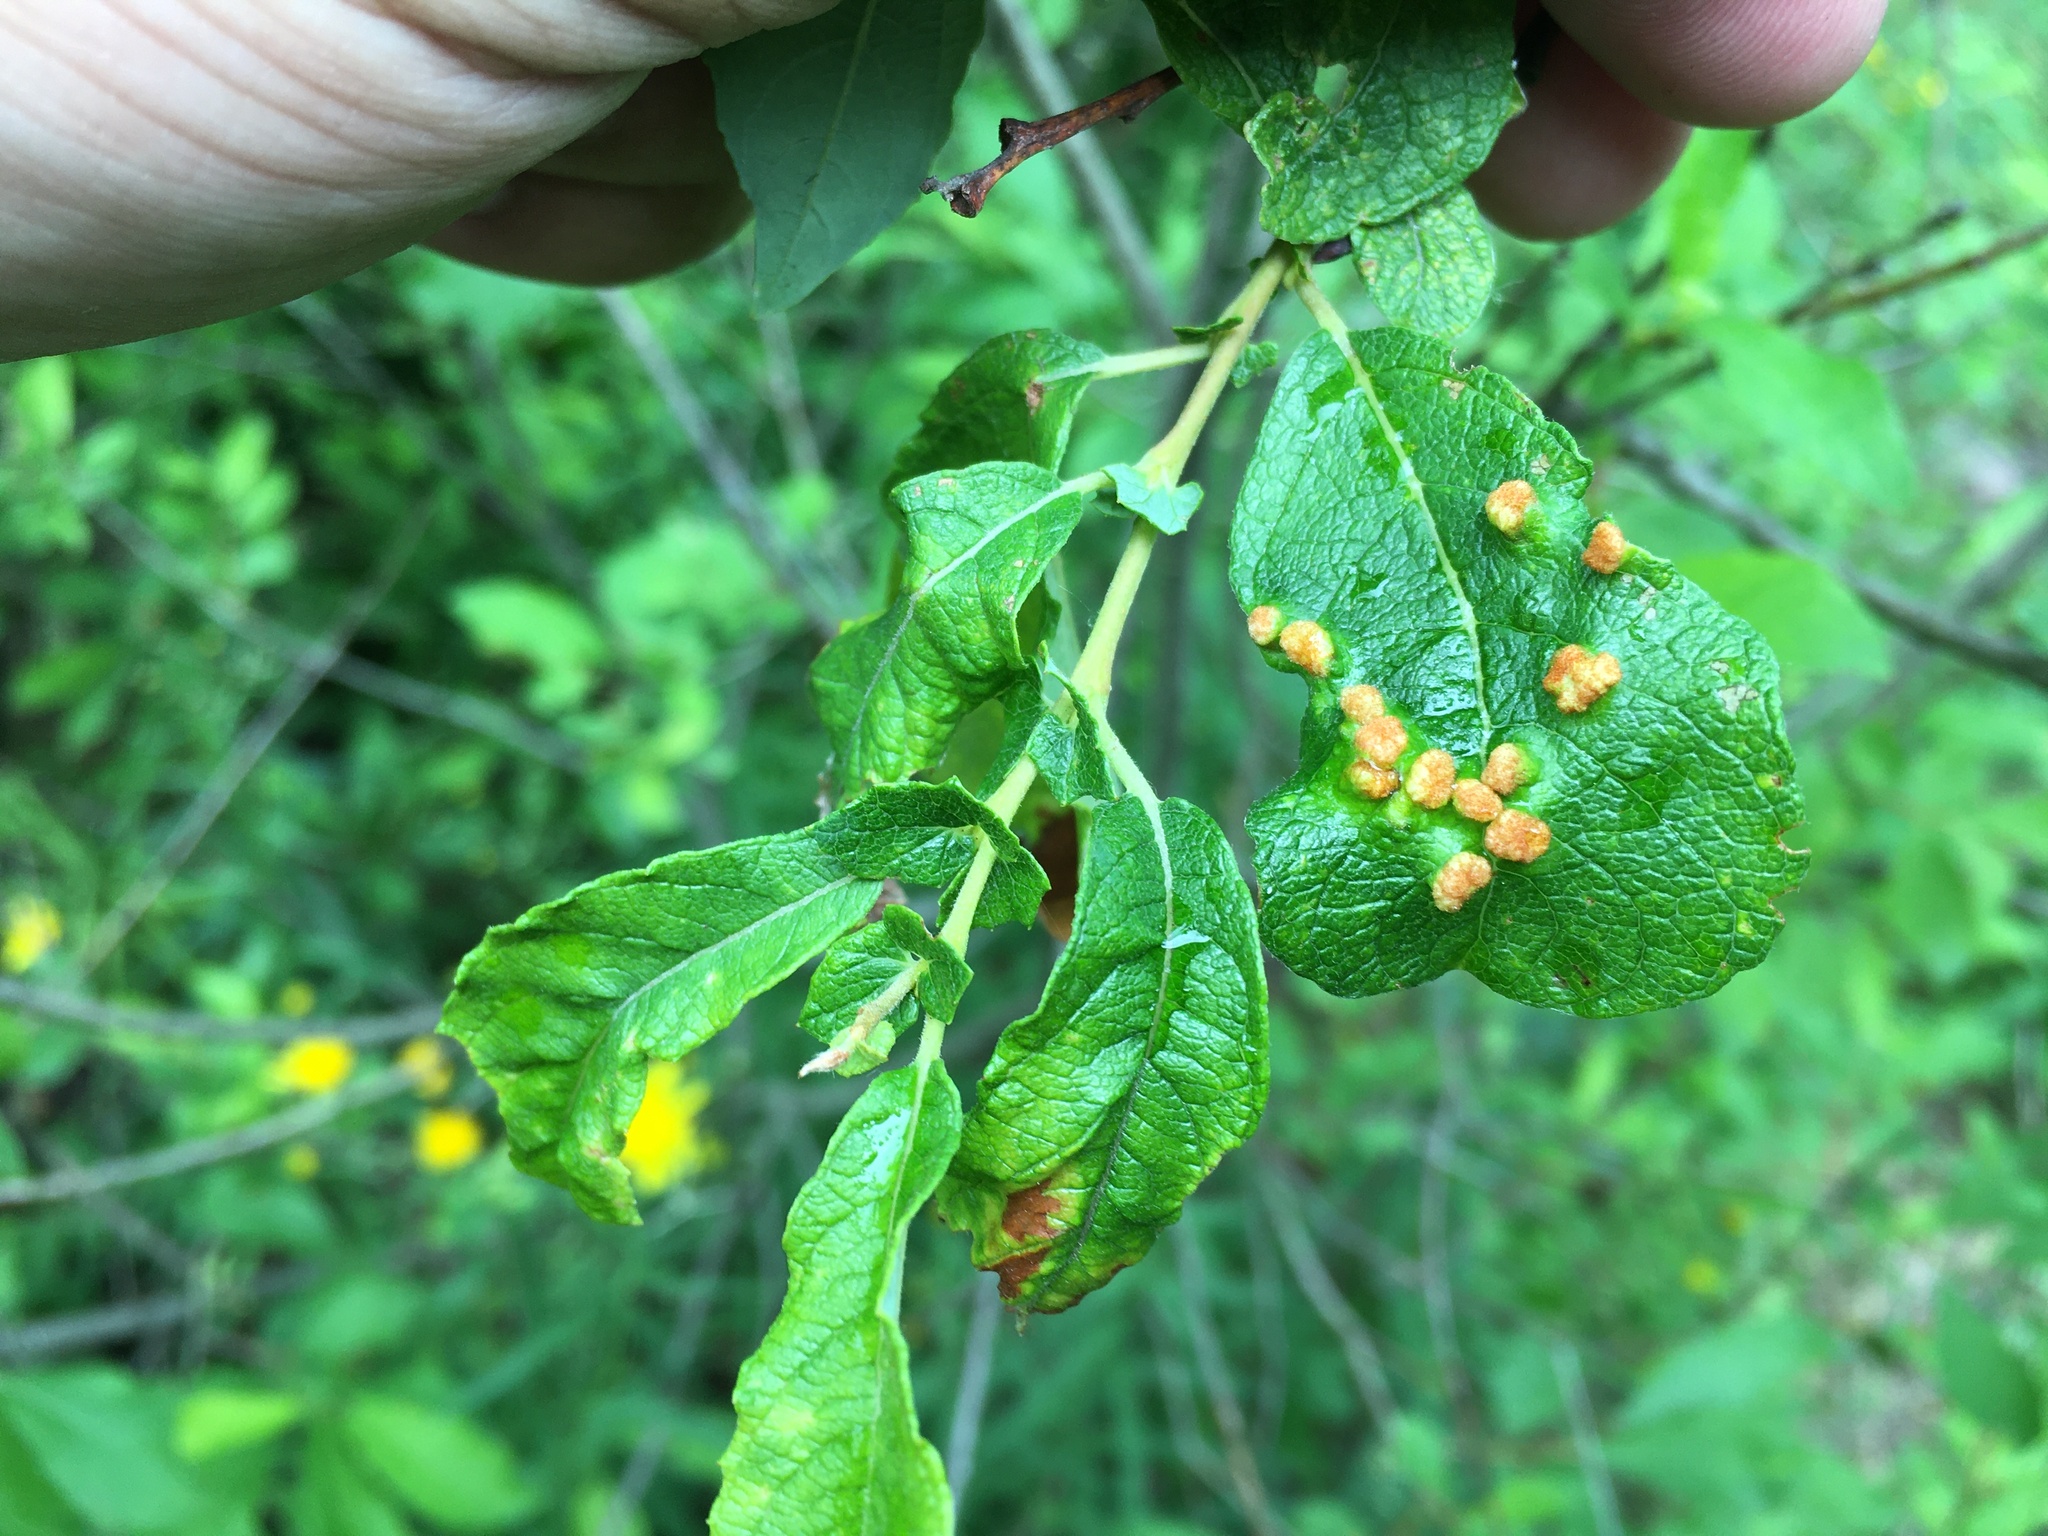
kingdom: Plantae
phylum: Tracheophyta
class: Magnoliopsida
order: Malpighiales
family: Salicaceae
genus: Salix
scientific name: Salix aurita
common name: Eared willow
